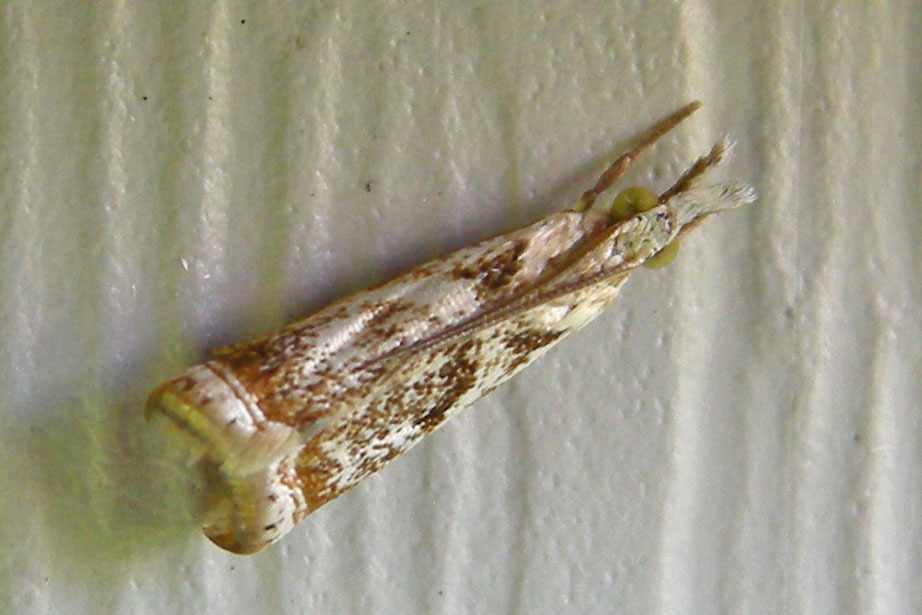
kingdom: Animalia
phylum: Arthropoda
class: Insecta
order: Lepidoptera
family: Crambidae
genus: Microcrambus
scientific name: Microcrambus elegans
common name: Elegant grass-veneer
